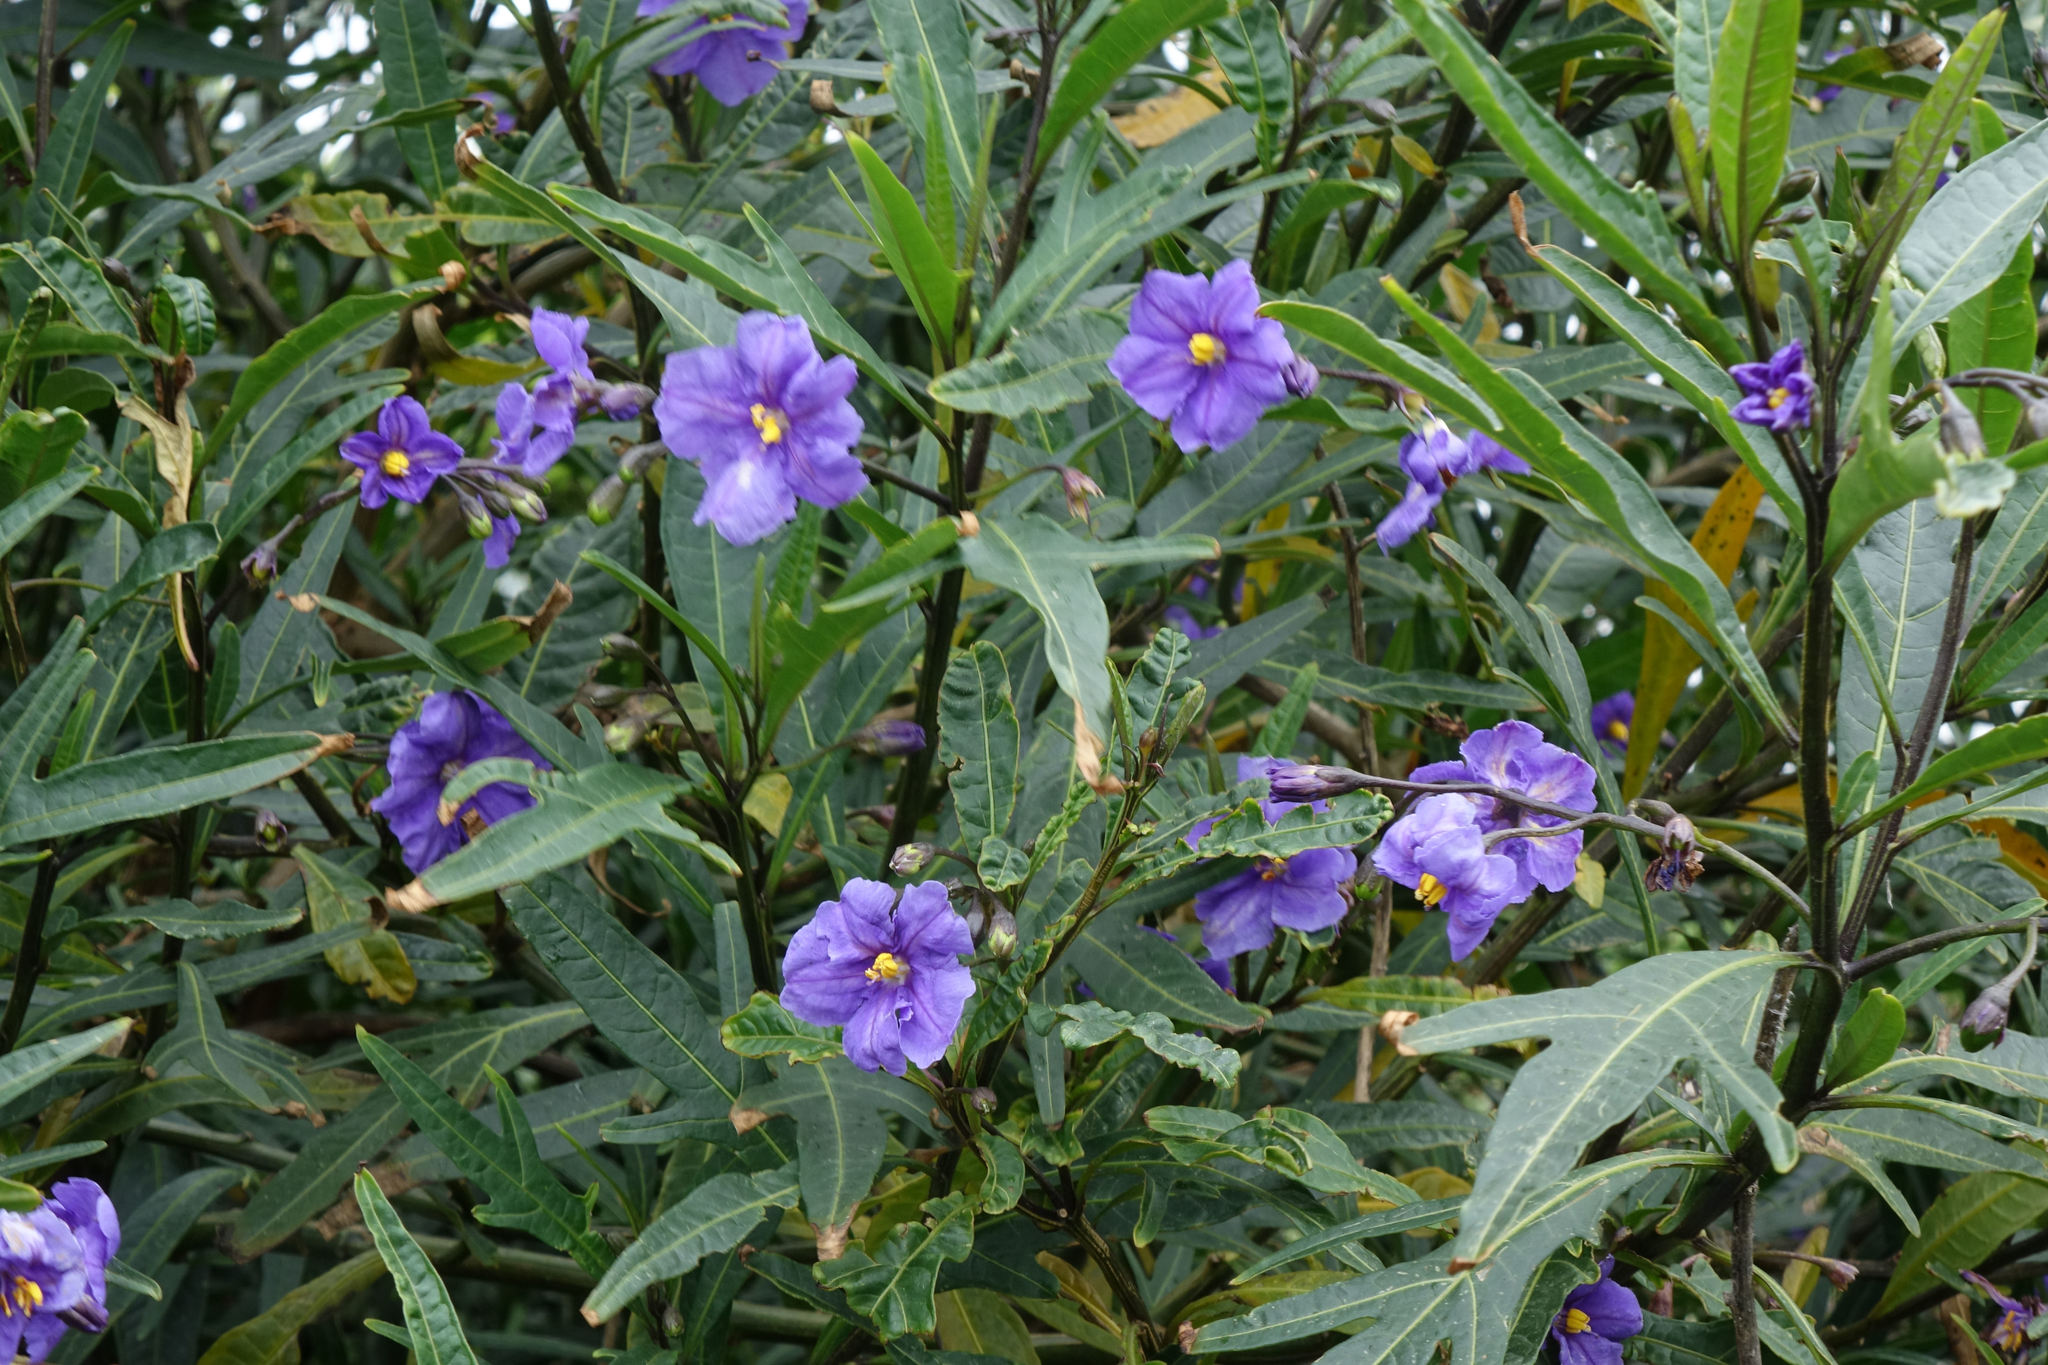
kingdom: Plantae
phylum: Tracheophyta
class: Magnoliopsida
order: Solanales
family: Solanaceae
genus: Solanum
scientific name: Solanum laciniatum
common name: Kangaroo-apple
